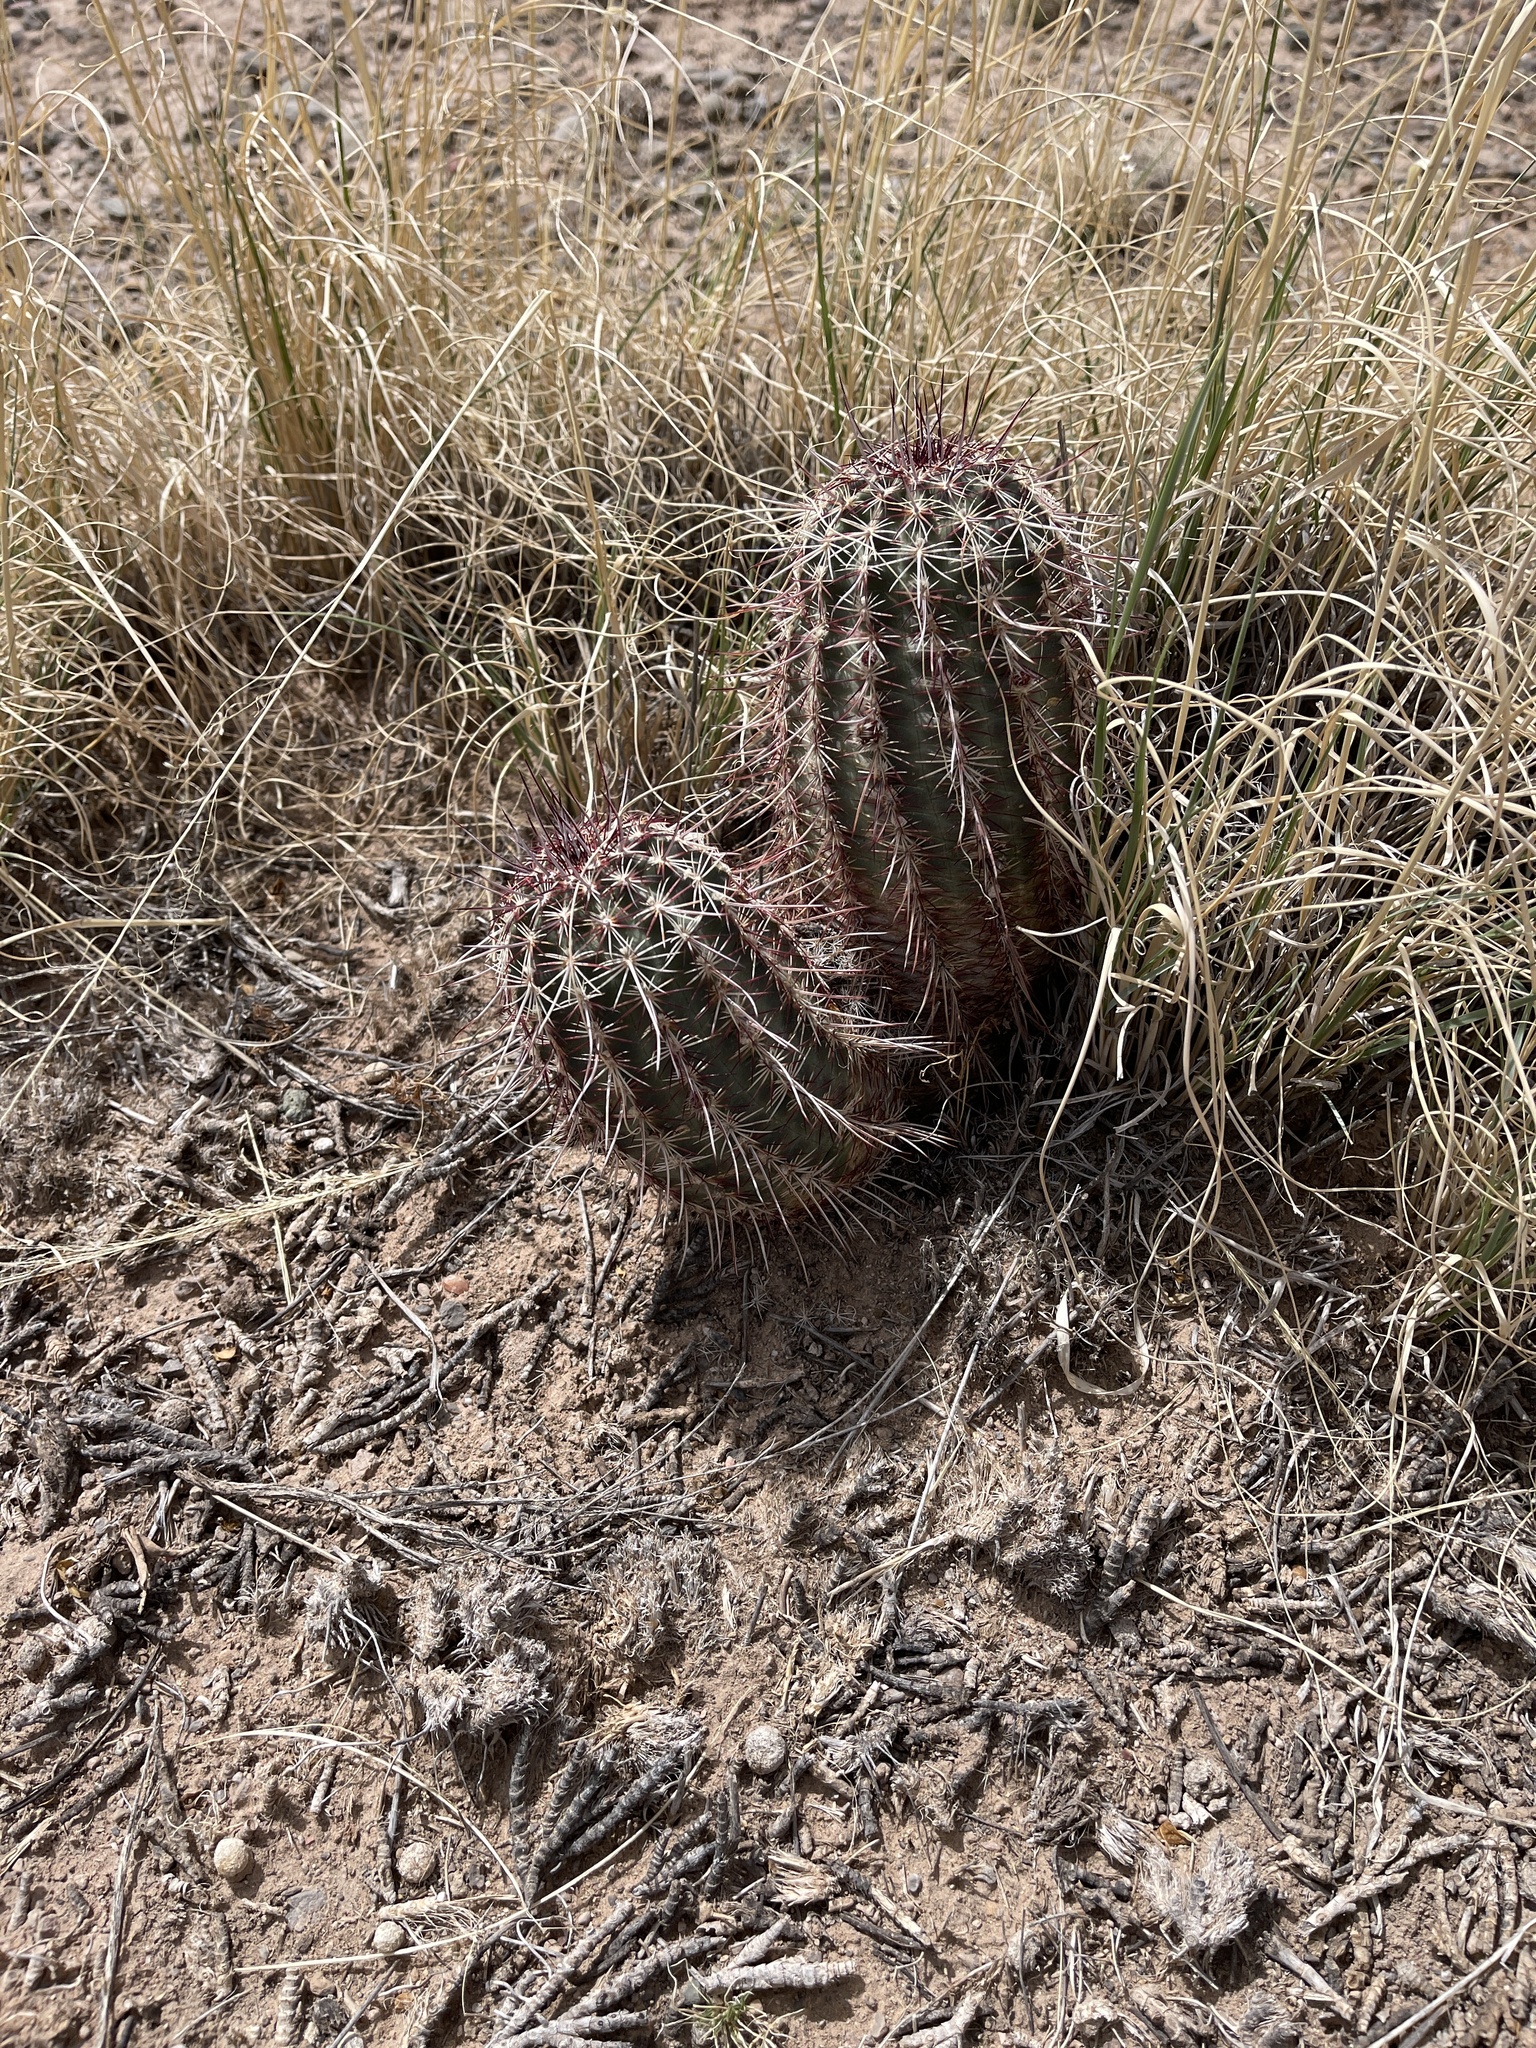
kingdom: Plantae
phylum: Tracheophyta
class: Magnoliopsida
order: Caryophyllales
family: Cactaceae
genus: Echinocereus
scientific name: Echinocereus viridiflorus
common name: Nylon hedgehog cactus
